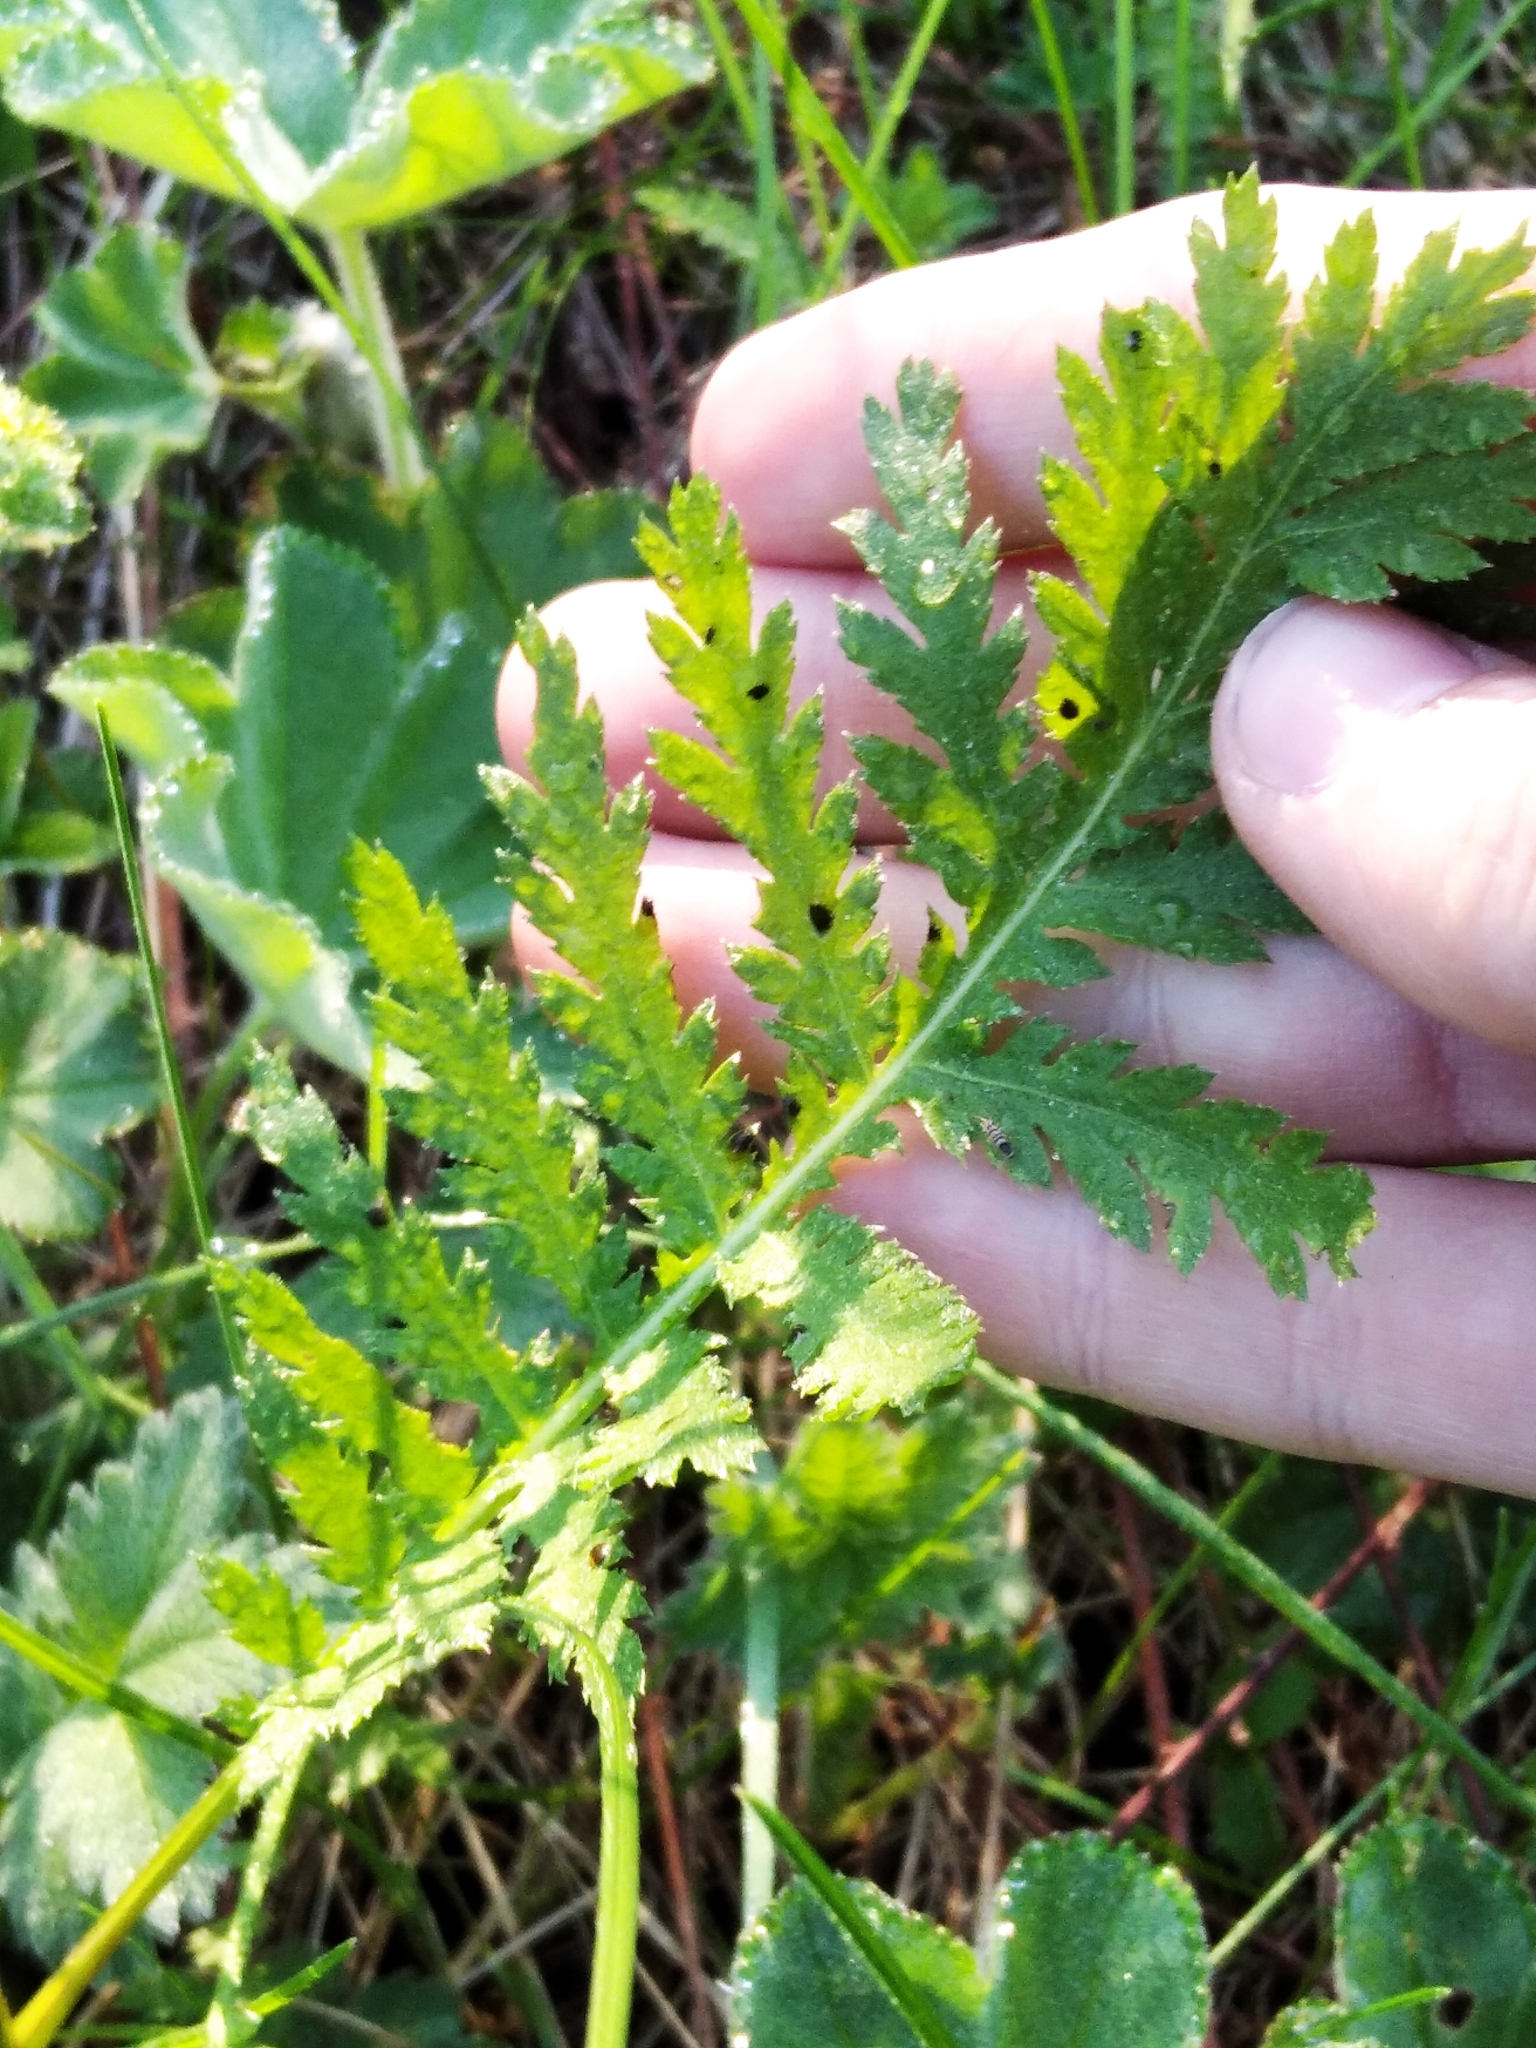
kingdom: Plantae
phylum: Tracheophyta
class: Magnoliopsida
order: Asterales
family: Asteraceae
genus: Tanacetum
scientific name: Tanacetum vulgare
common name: Common tansy
